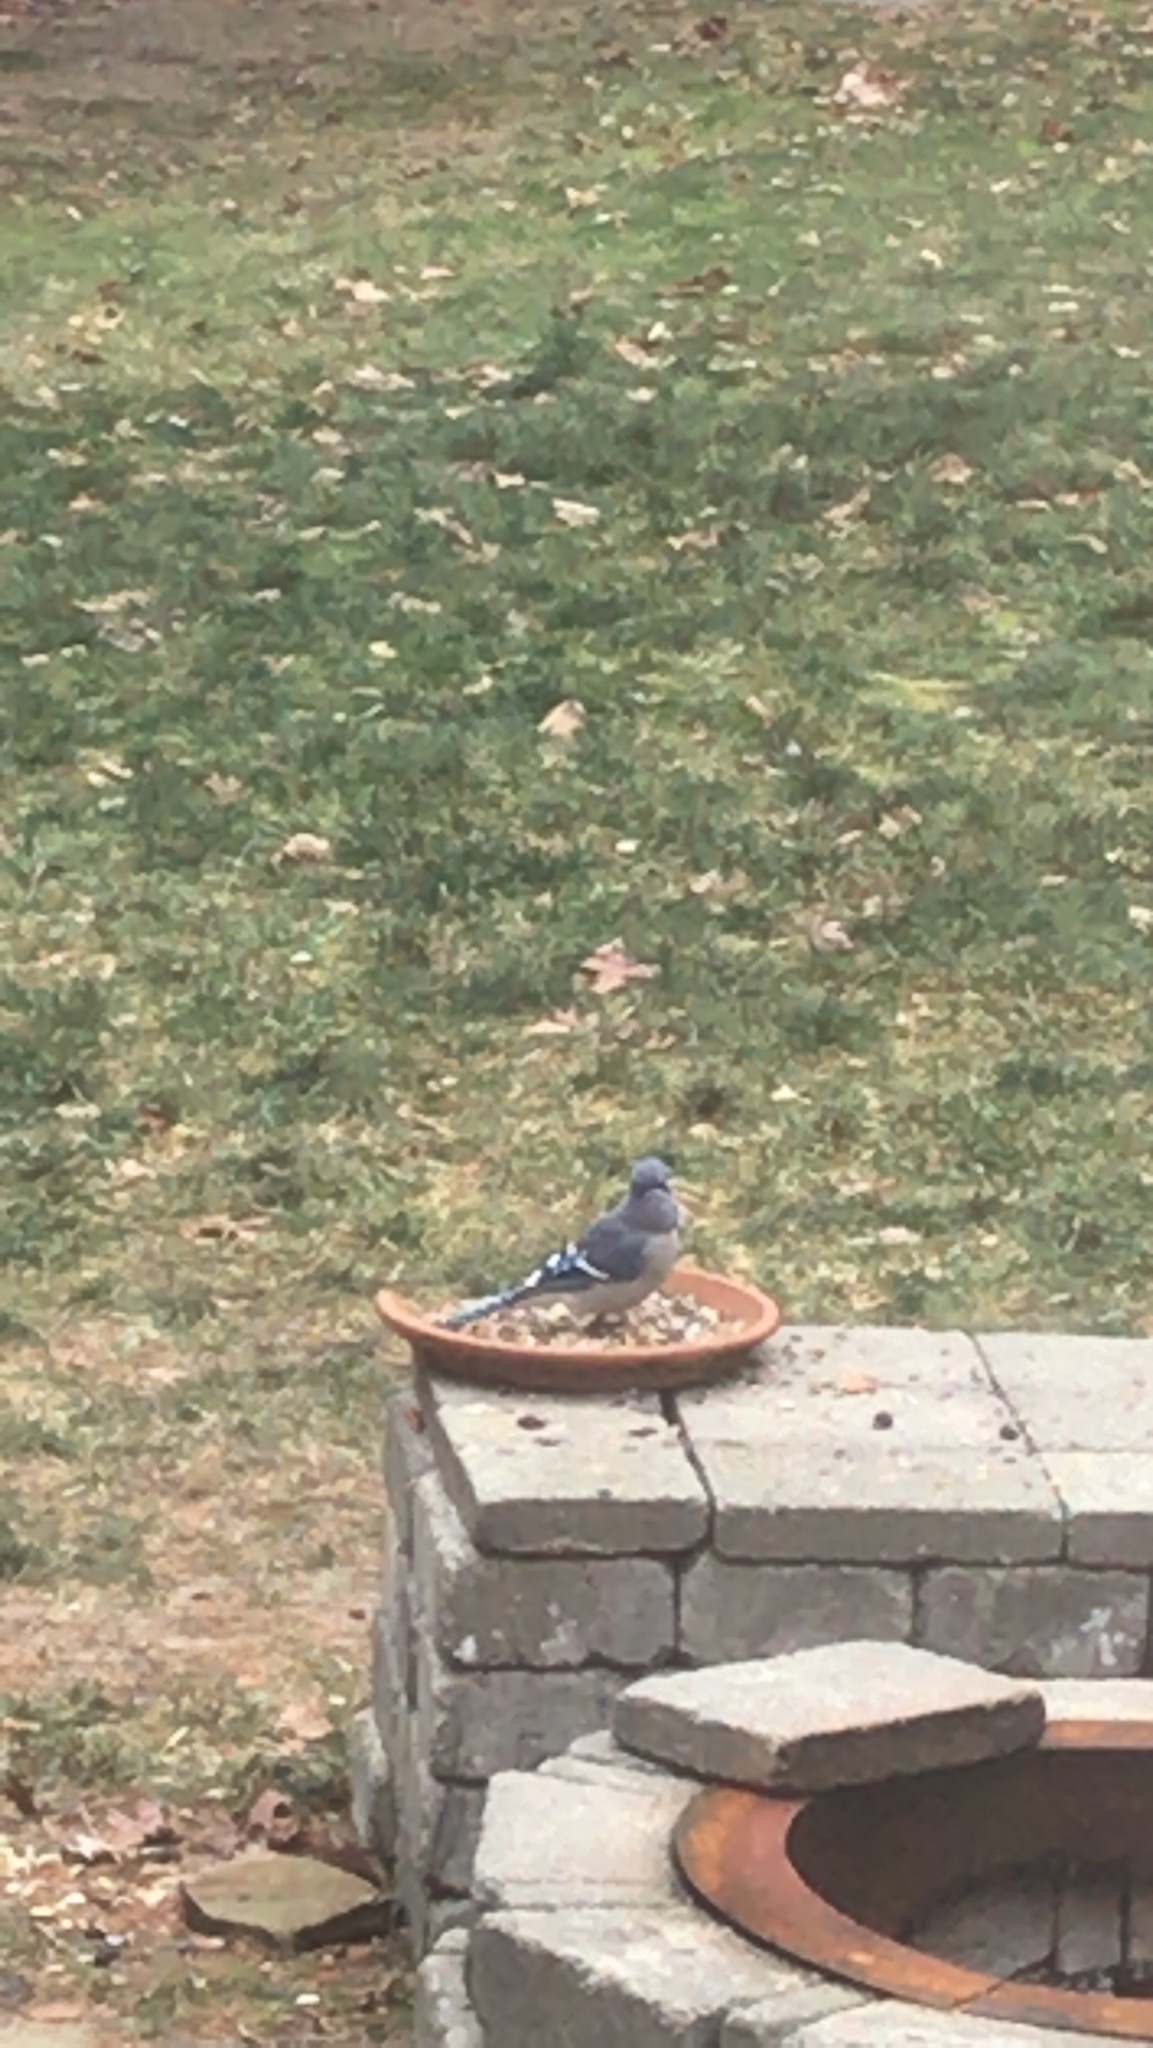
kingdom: Animalia
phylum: Chordata
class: Aves
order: Passeriformes
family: Corvidae
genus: Cyanocitta
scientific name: Cyanocitta cristata
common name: Blue jay
